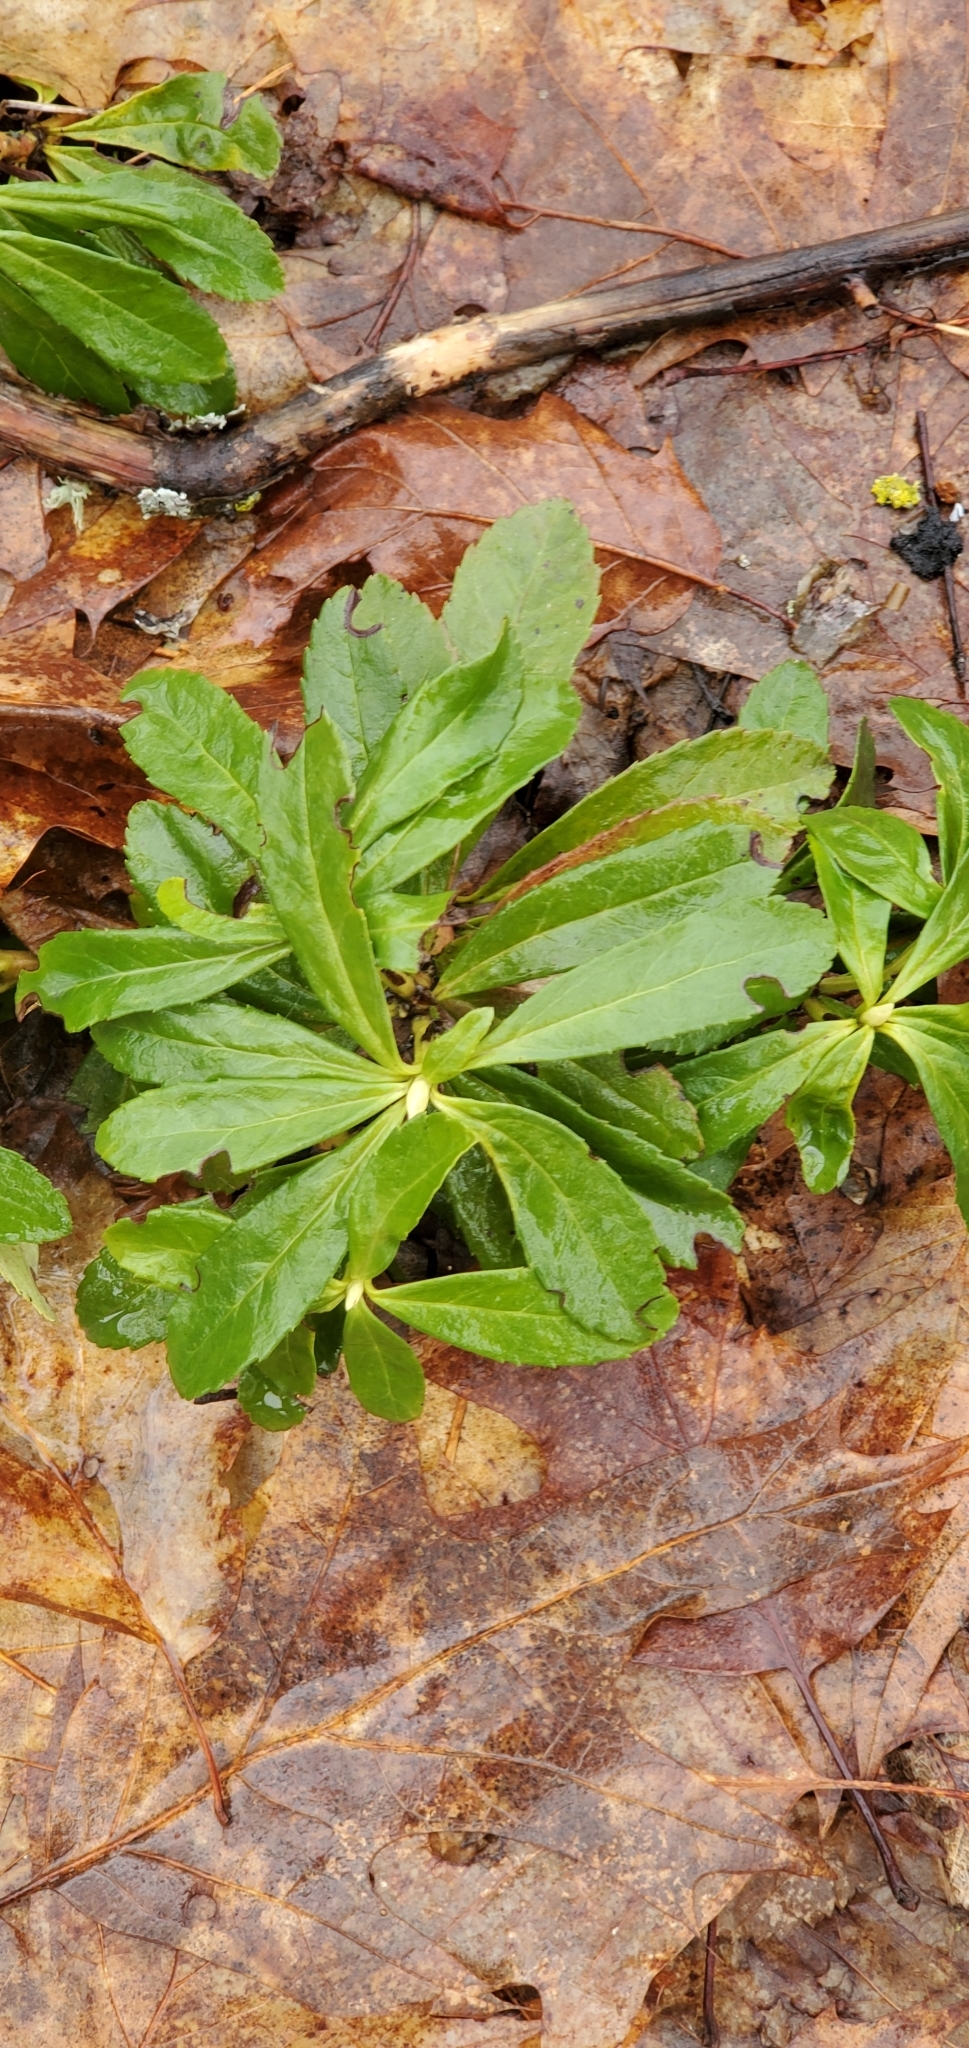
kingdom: Plantae
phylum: Tracheophyta
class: Magnoliopsida
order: Ericales
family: Ericaceae
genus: Chimaphila
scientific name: Chimaphila umbellata
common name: Pipsissewa
